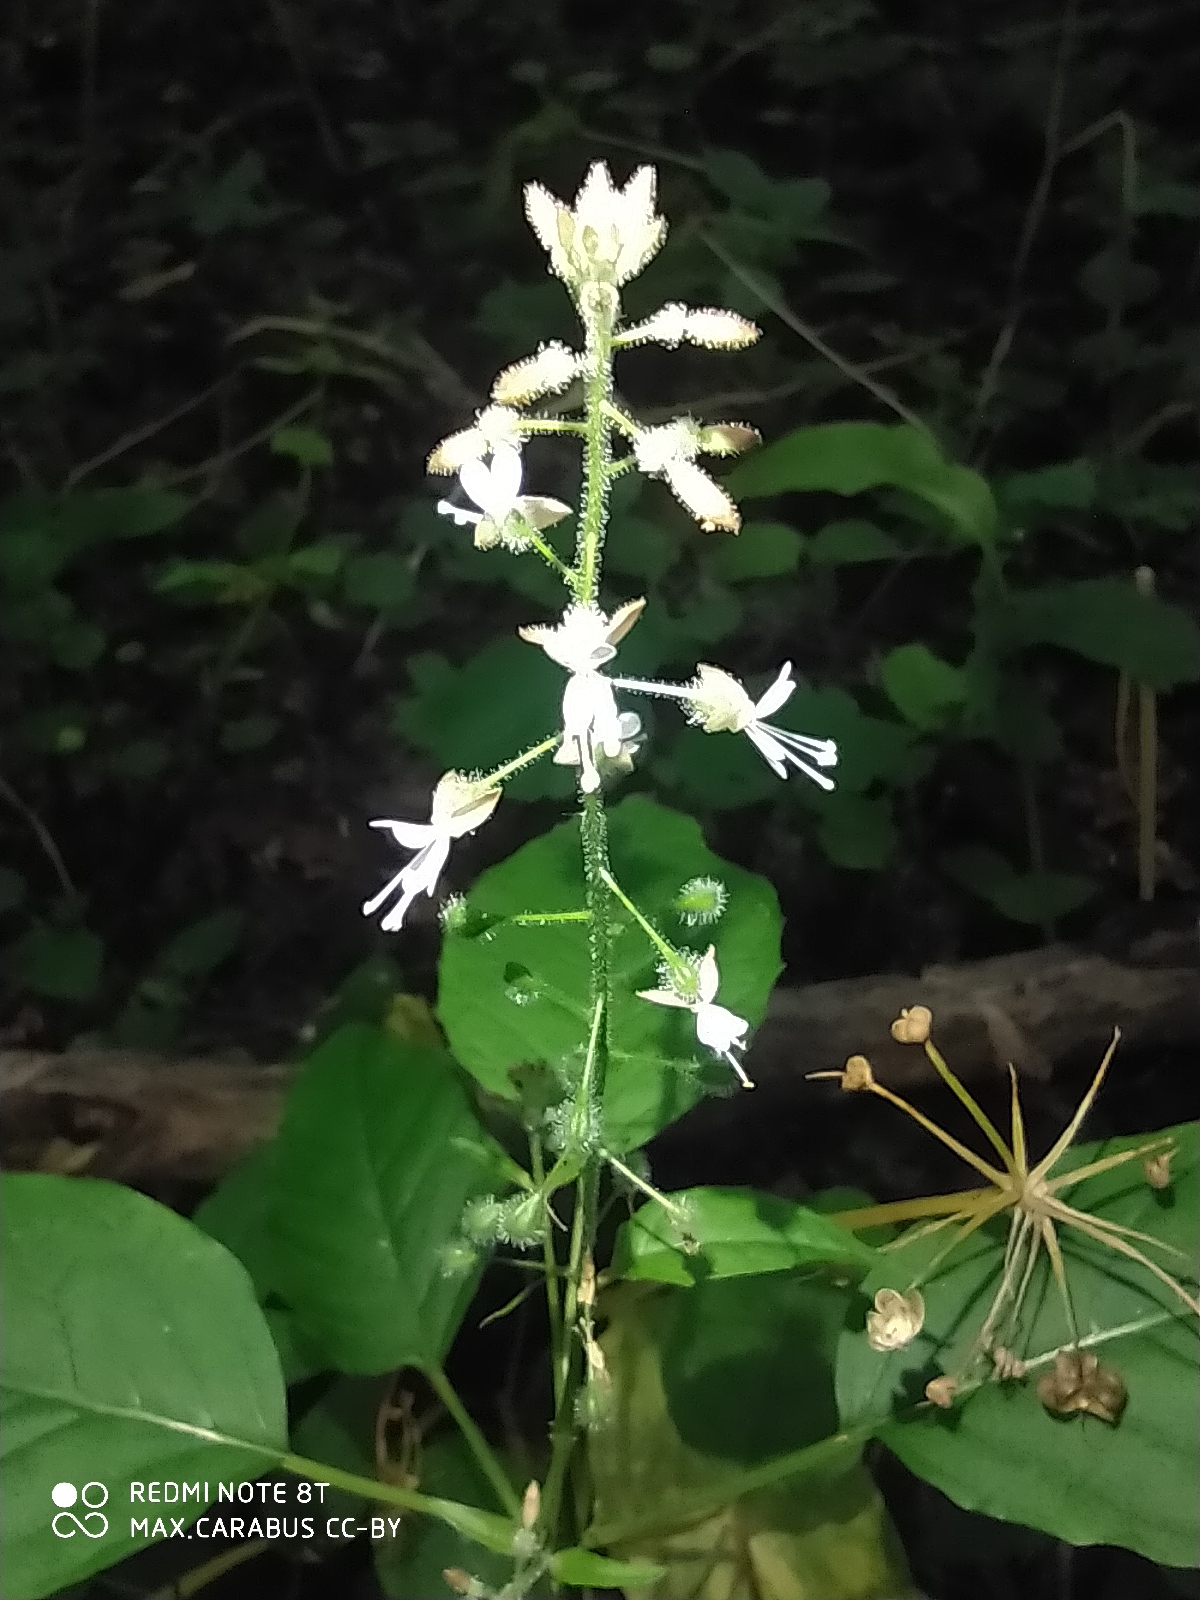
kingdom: Plantae
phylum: Tracheophyta
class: Magnoliopsida
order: Myrtales
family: Onagraceae
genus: Circaea
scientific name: Circaea lutetiana
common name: Enchanter's-nightshade
